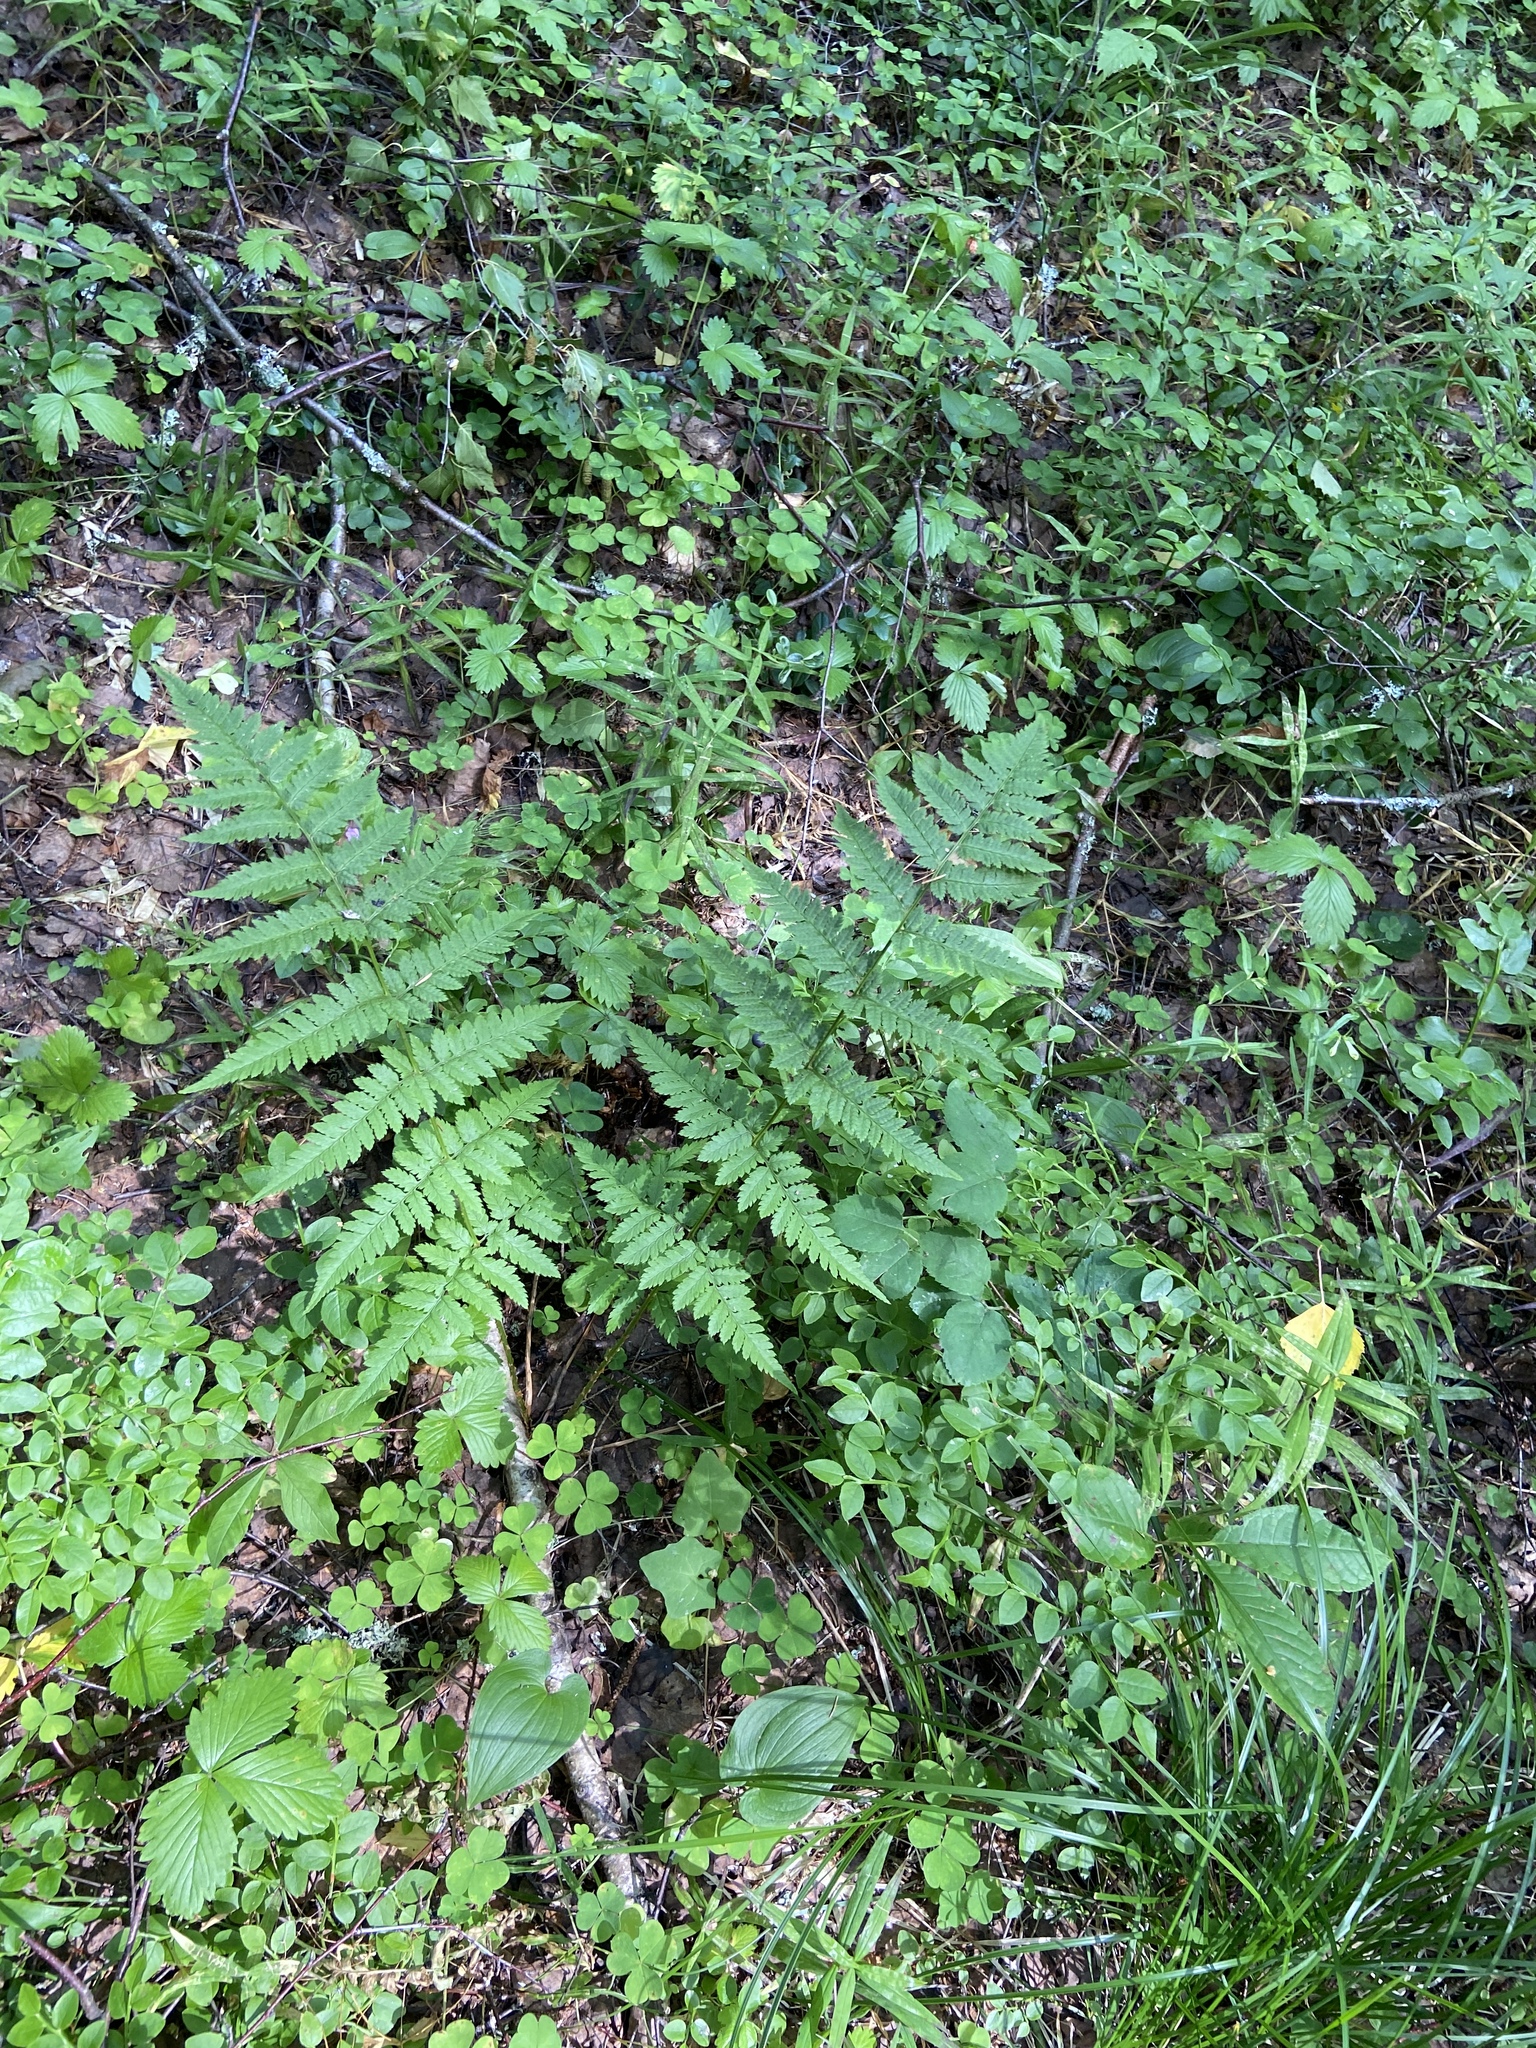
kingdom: Plantae
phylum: Tracheophyta
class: Polypodiopsida
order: Polypodiales
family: Dryopteridaceae
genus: Dryopteris
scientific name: Dryopteris carthusiana
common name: Narrow buckler-fern
